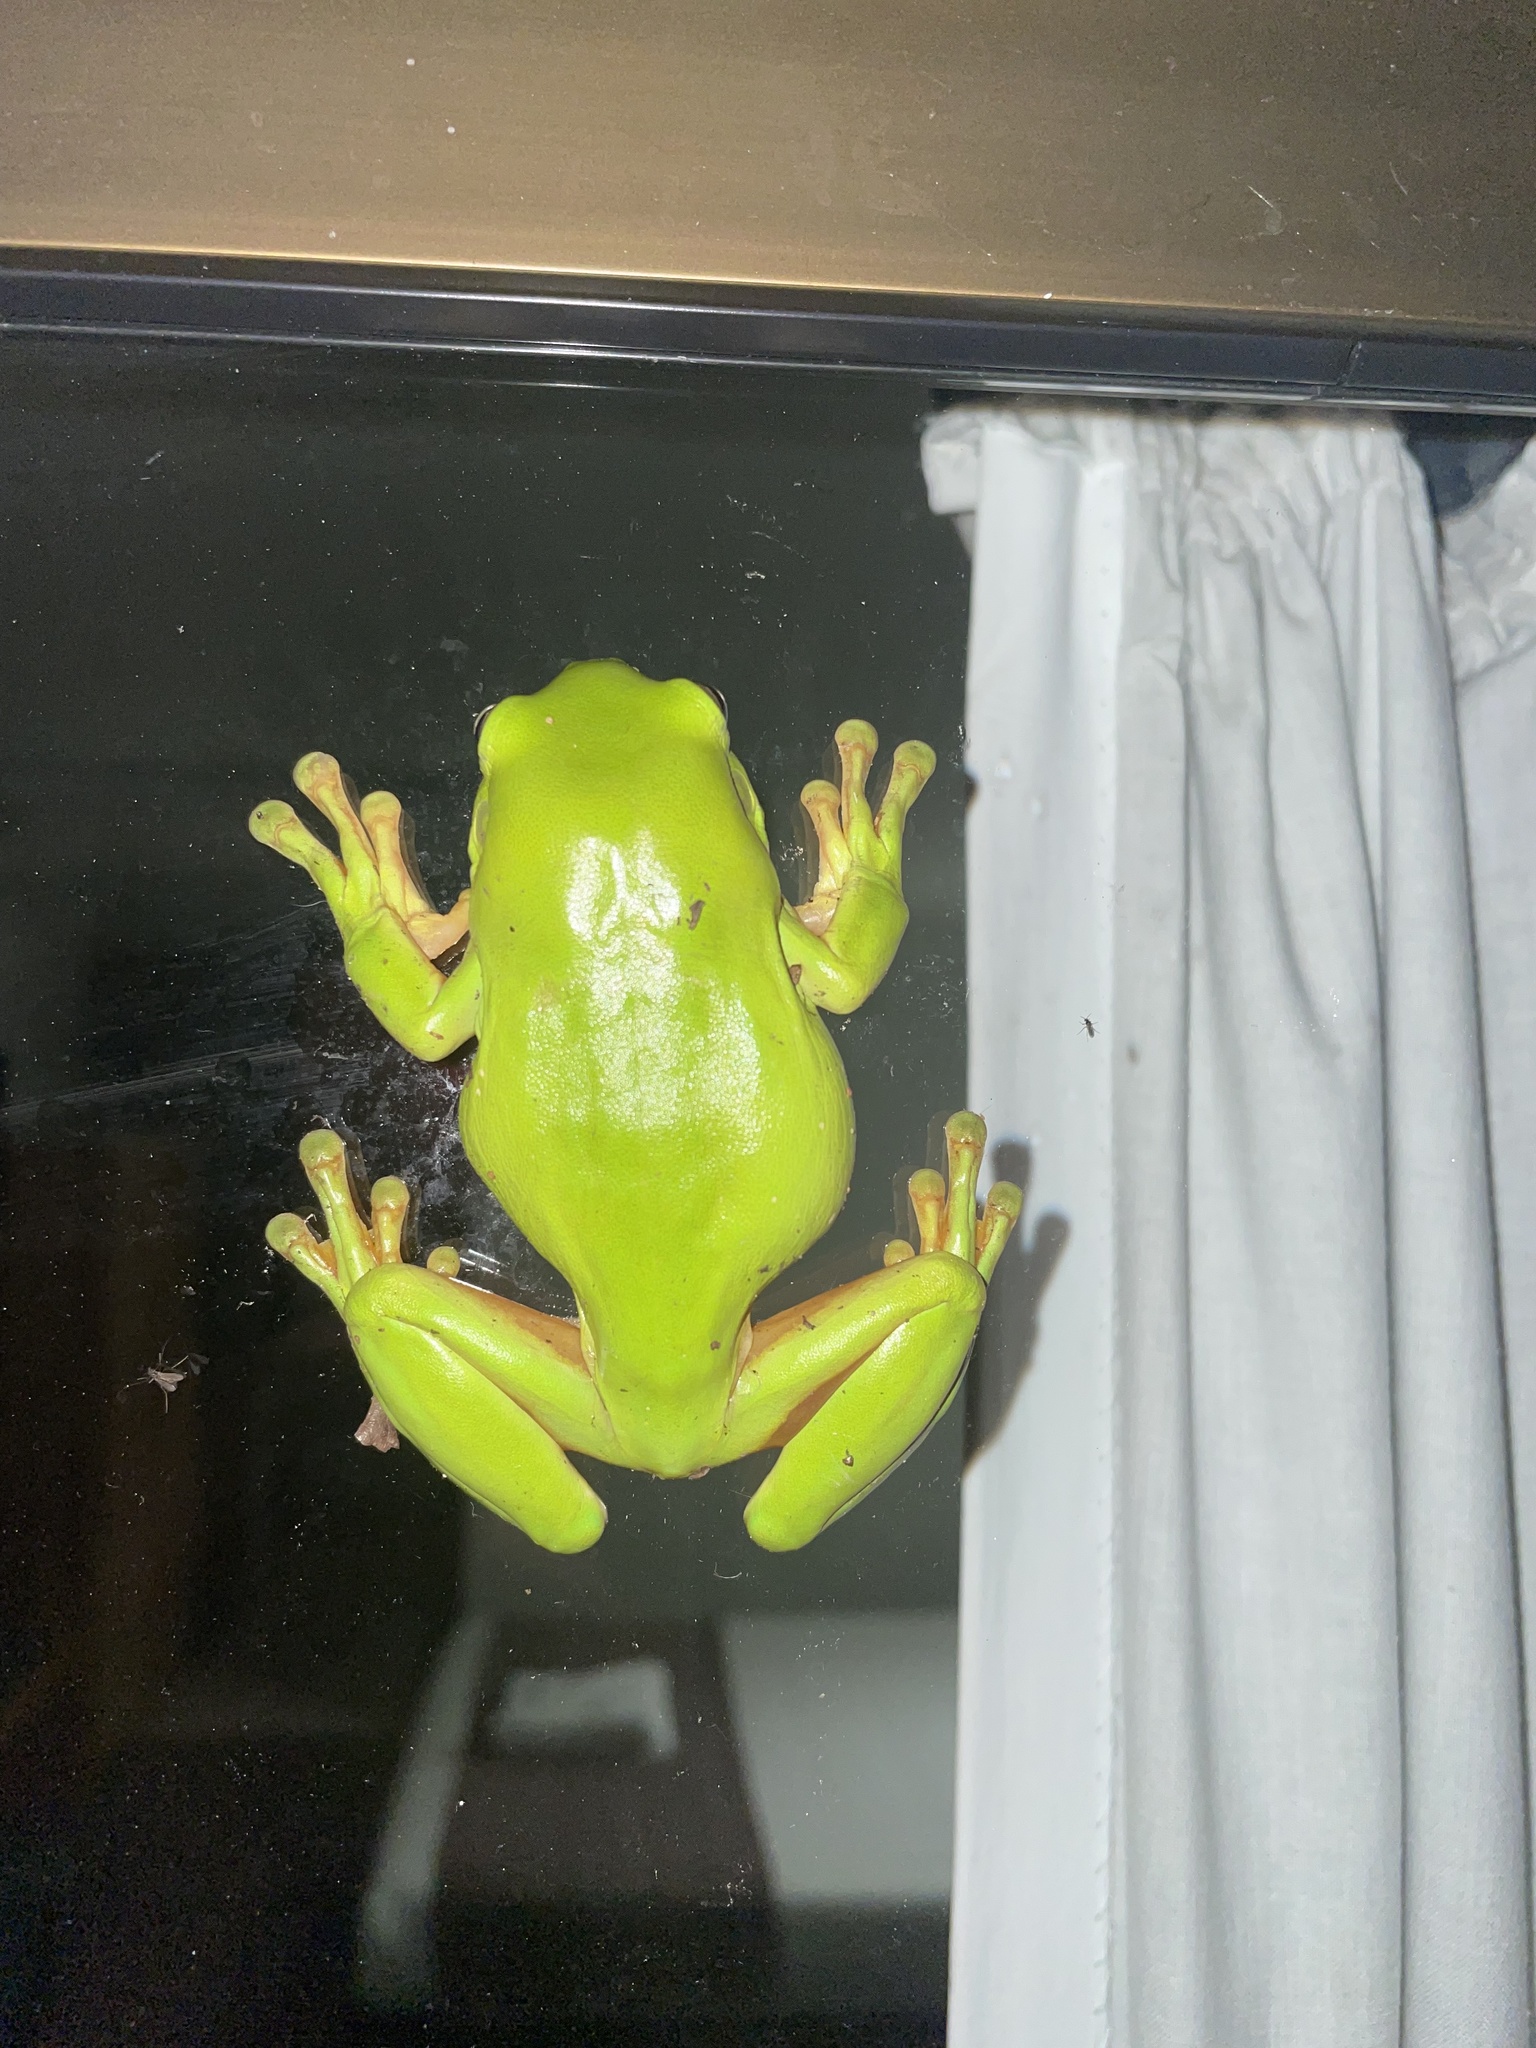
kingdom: Animalia
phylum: Chordata
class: Amphibia
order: Anura
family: Pelodryadidae
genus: Ranoidea
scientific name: Ranoidea caerulea
